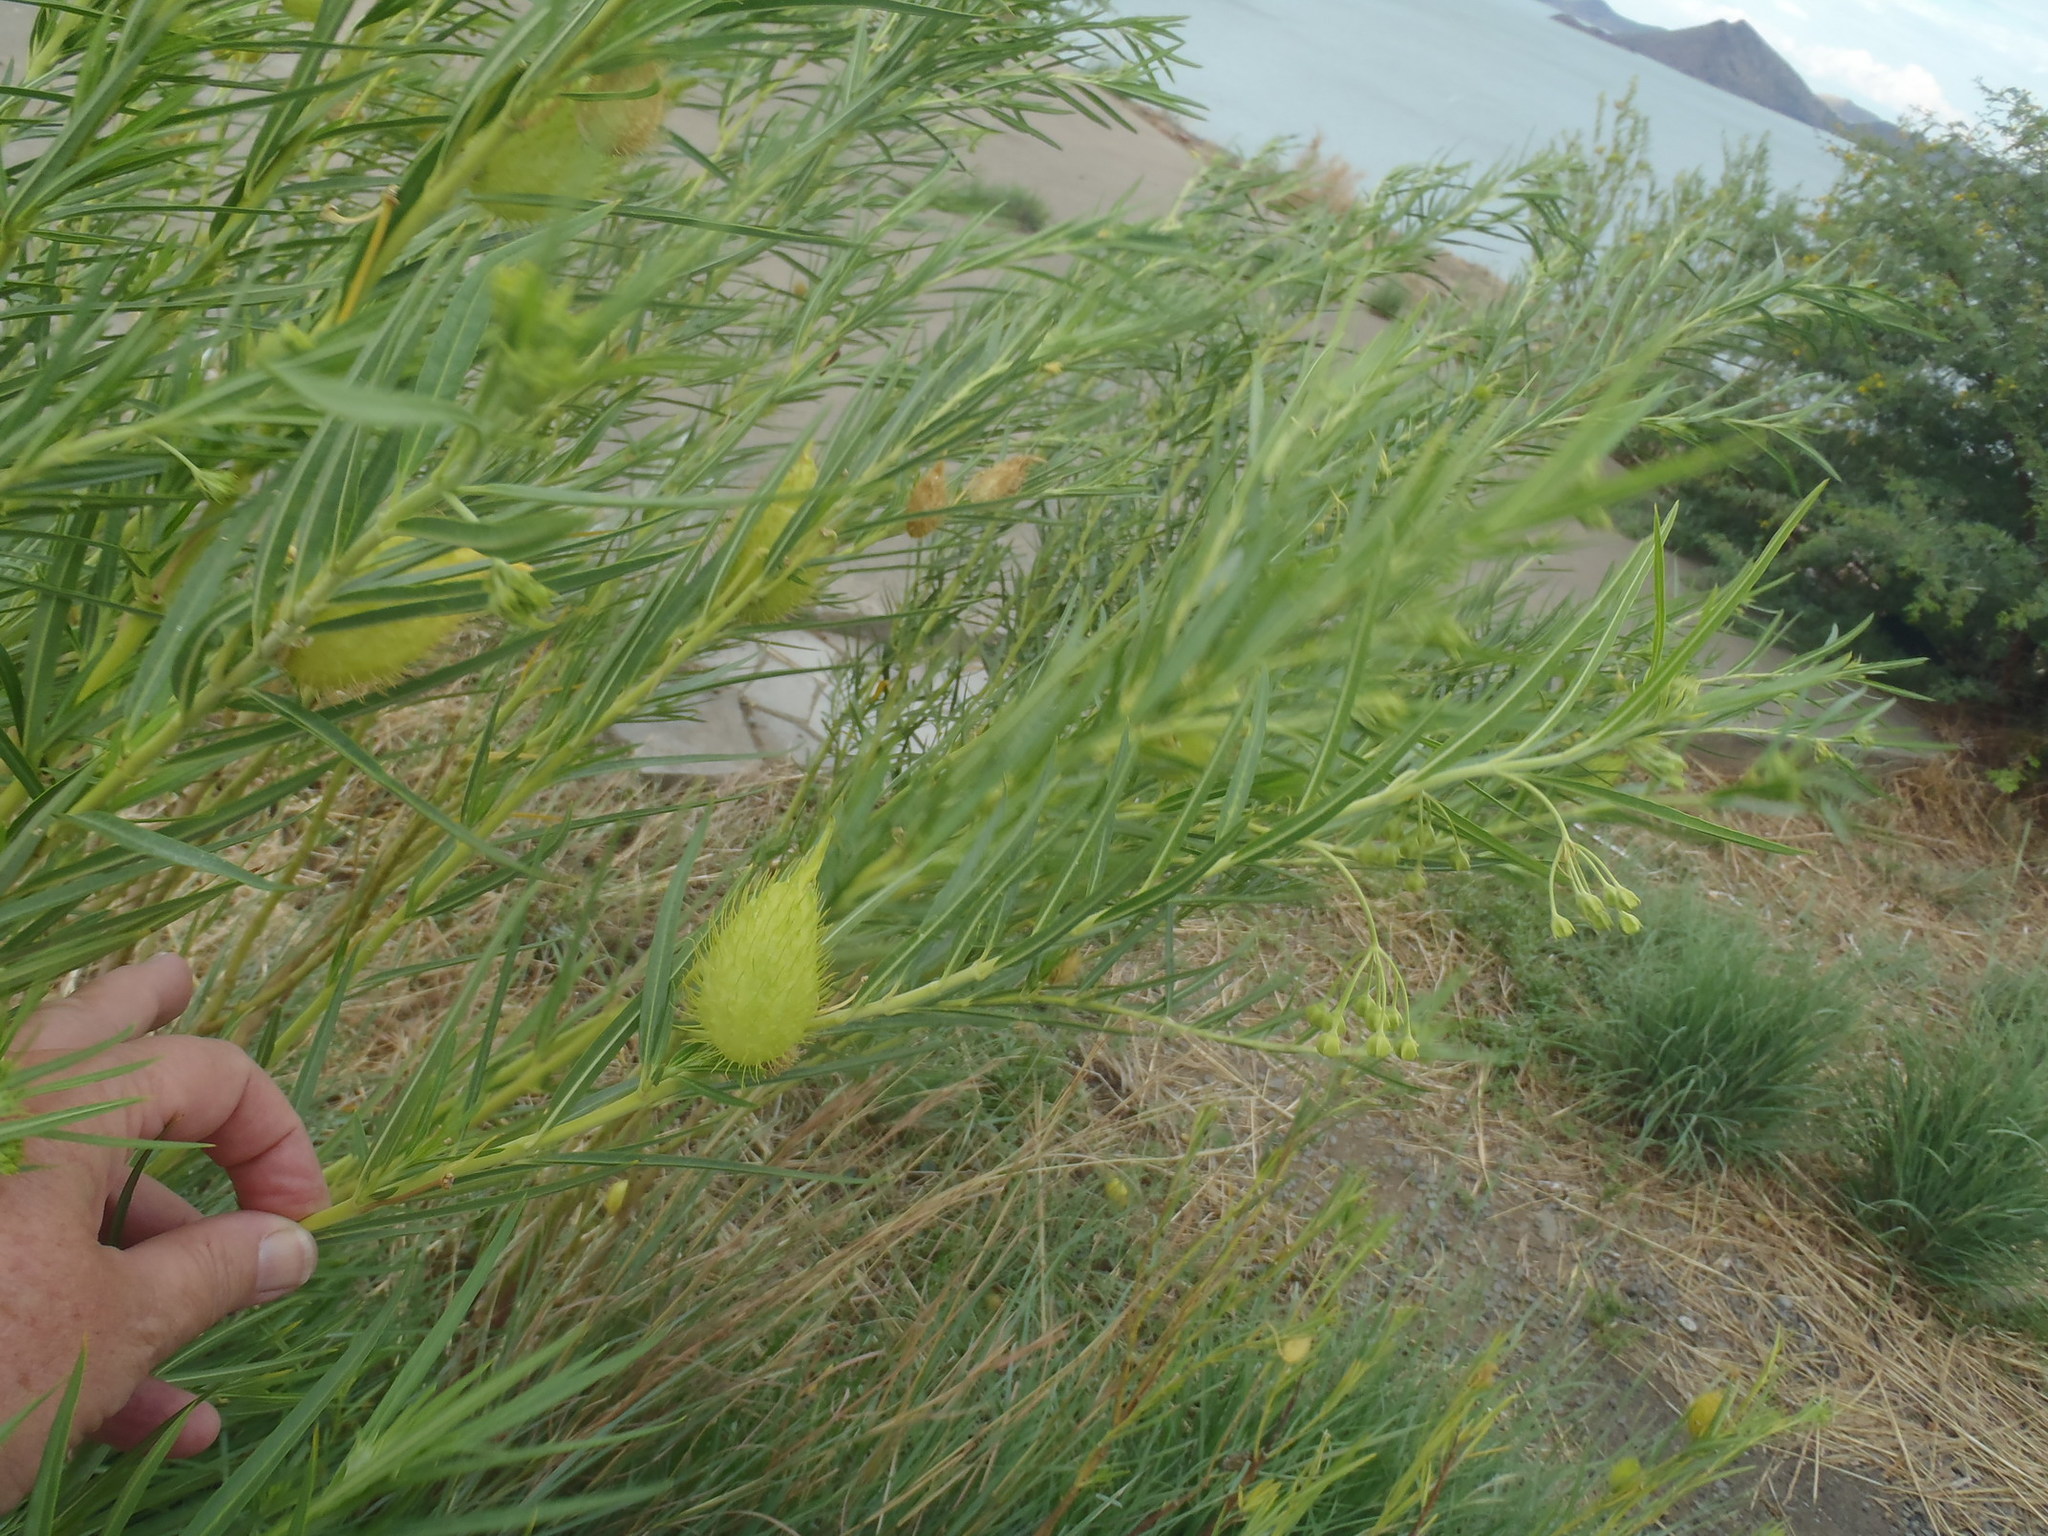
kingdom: Plantae
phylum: Tracheophyta
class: Magnoliopsida
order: Gentianales
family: Apocynaceae
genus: Gomphocarpus
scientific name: Gomphocarpus fruticosus
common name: Milkweed
